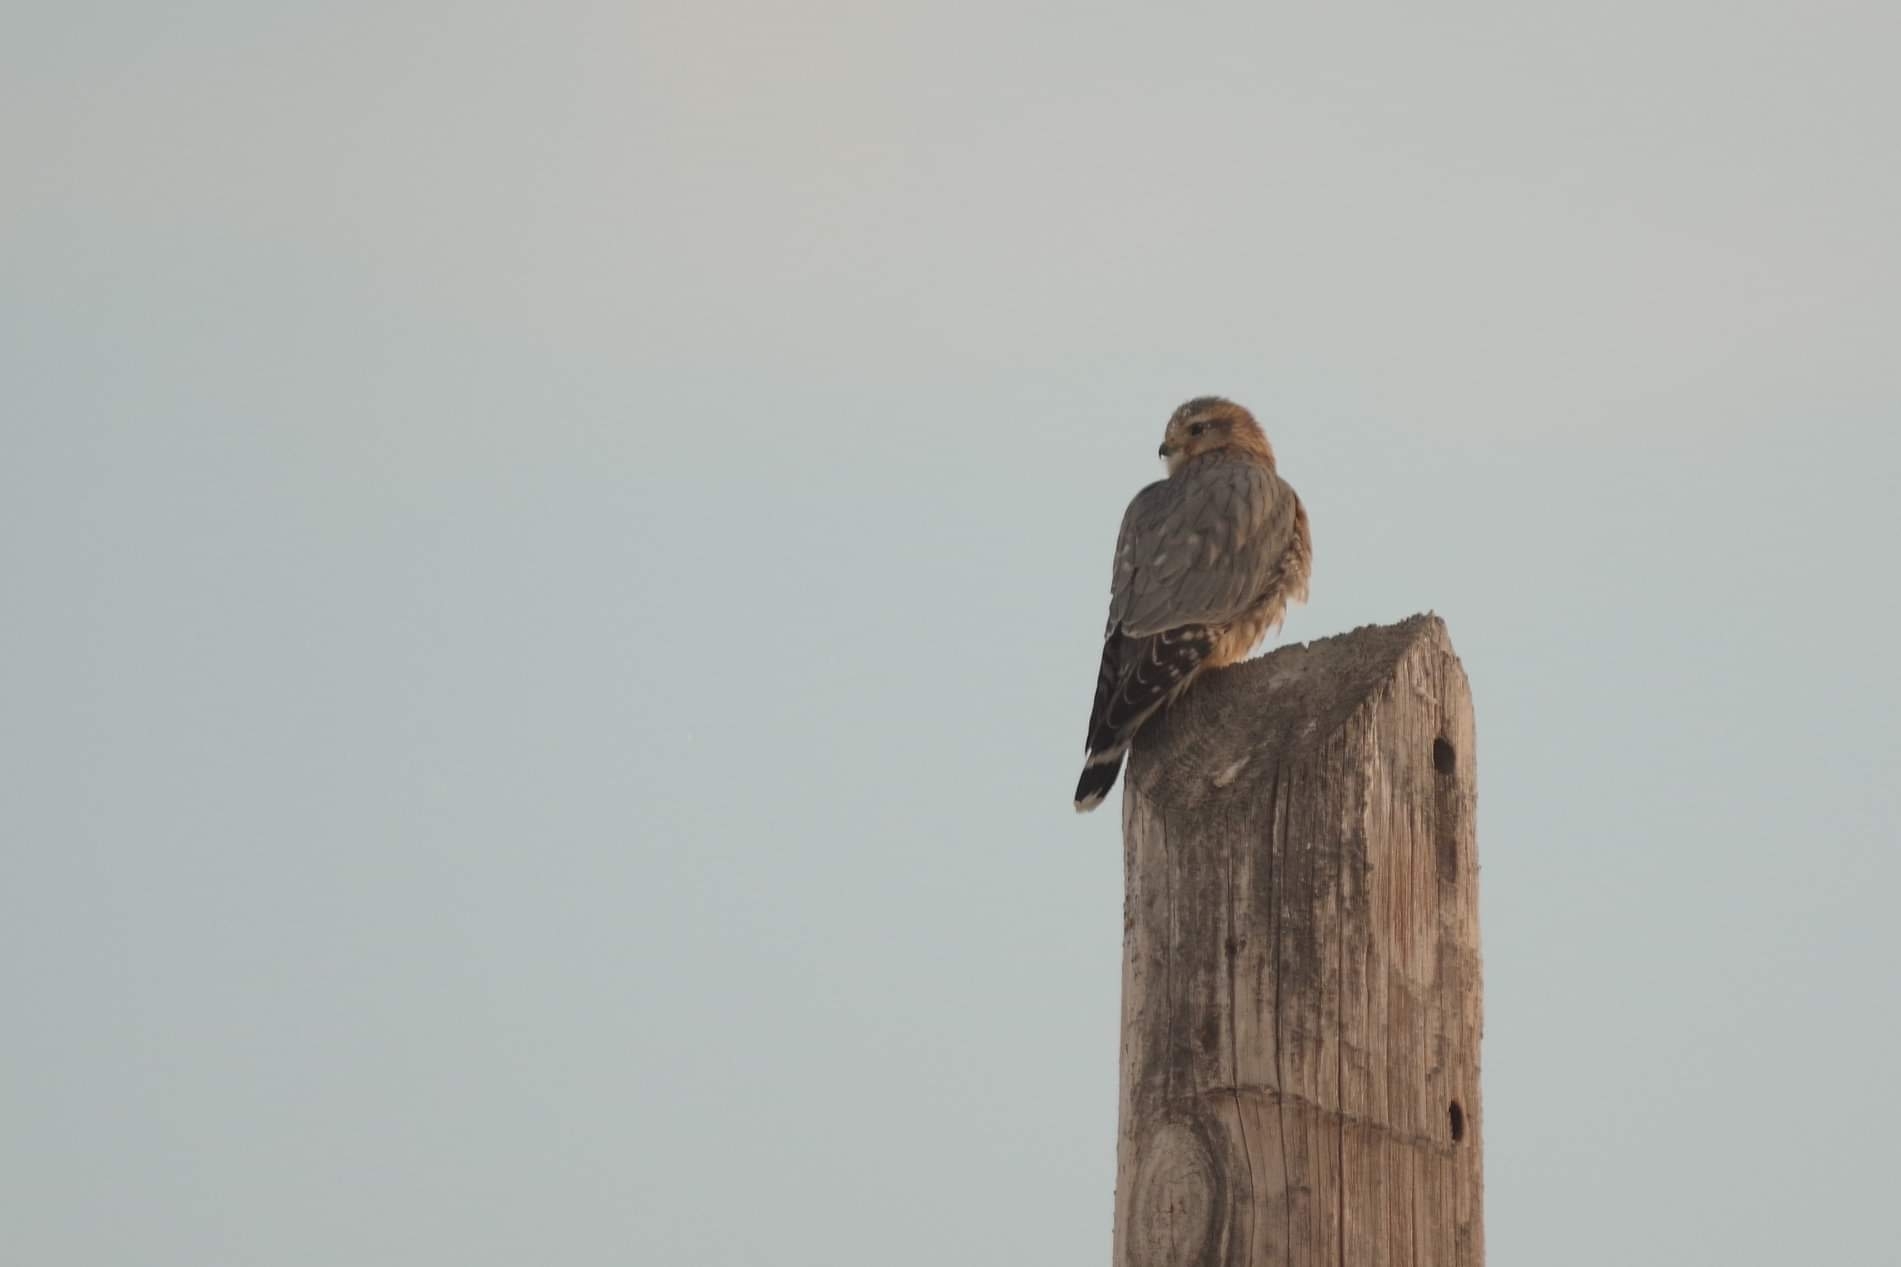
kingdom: Animalia
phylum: Chordata
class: Aves
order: Falconiformes
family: Falconidae
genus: Falco
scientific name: Falco columbarius
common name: Merlin
